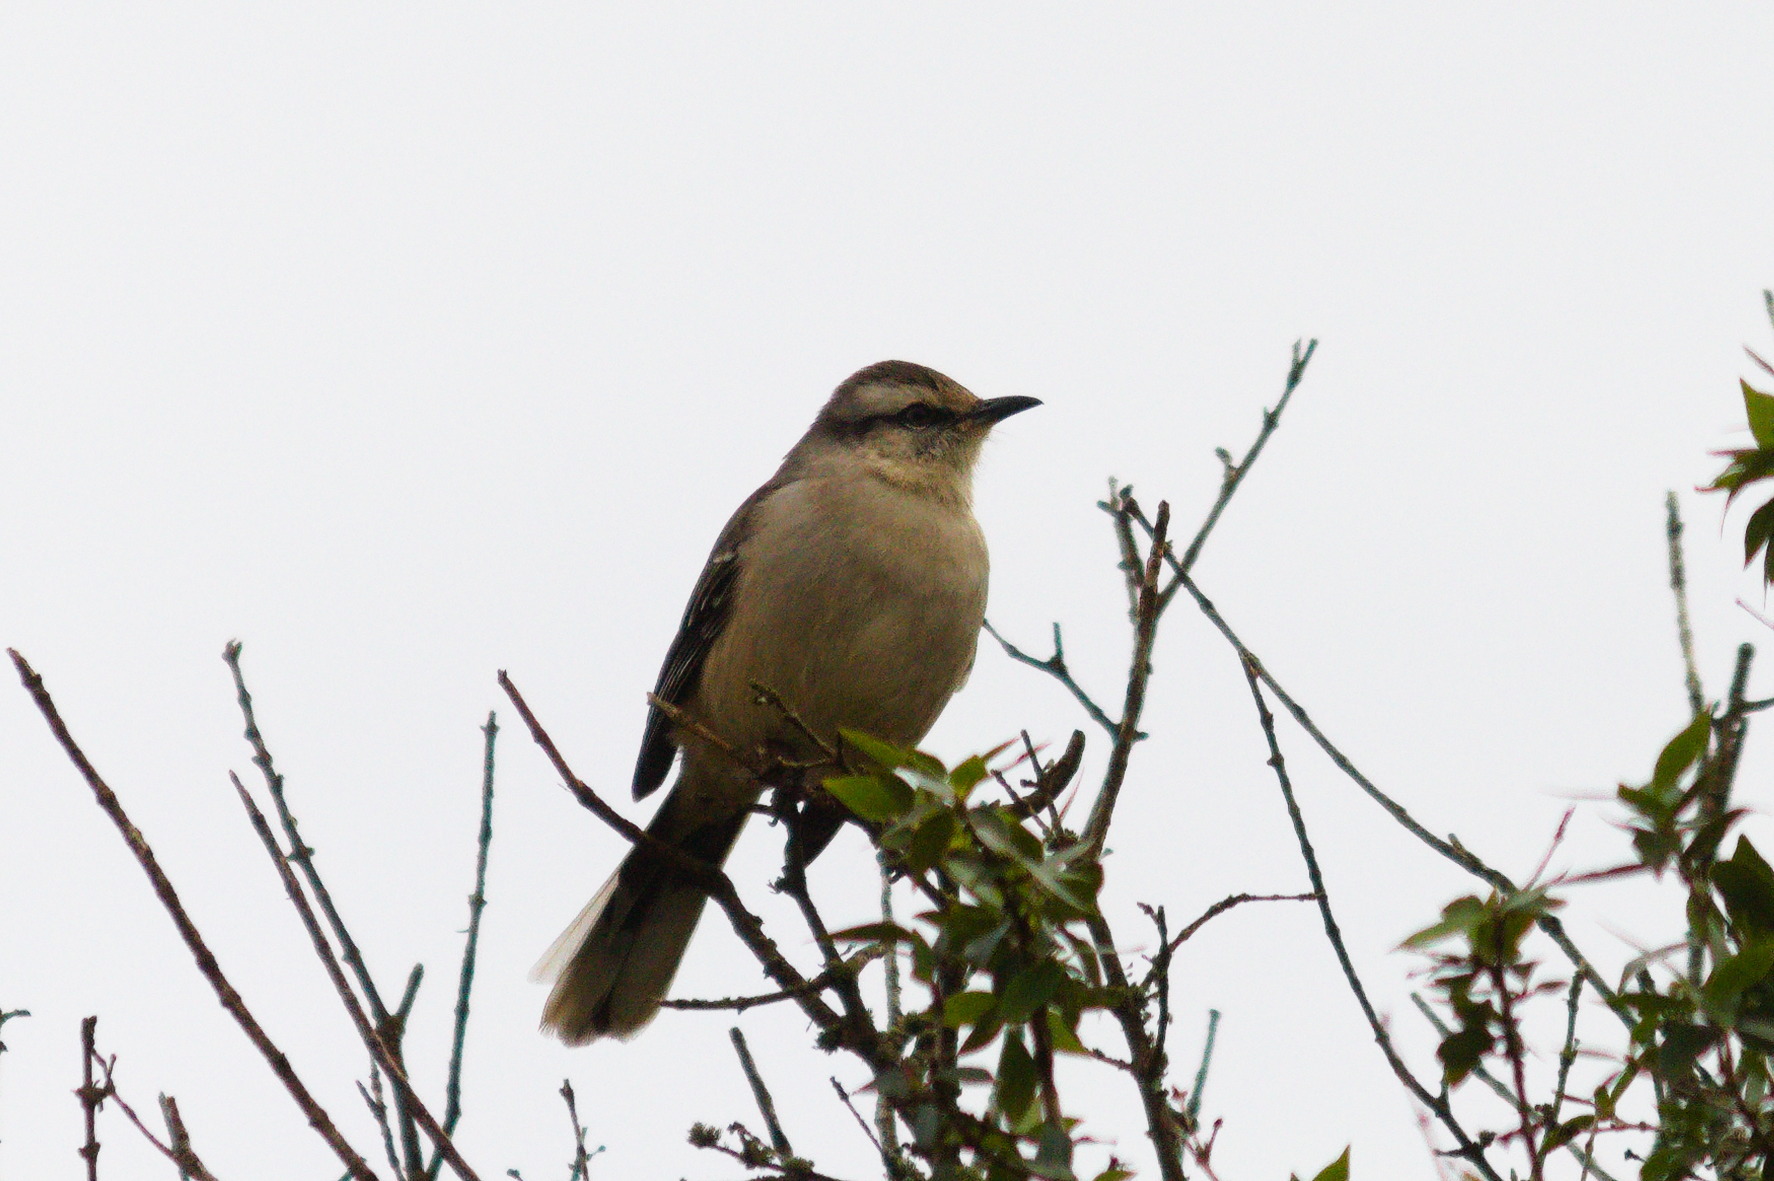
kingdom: Animalia
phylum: Chordata
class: Aves
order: Passeriformes
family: Mimidae
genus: Mimus
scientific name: Mimus saturninus
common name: Chalk-browed mockingbird
